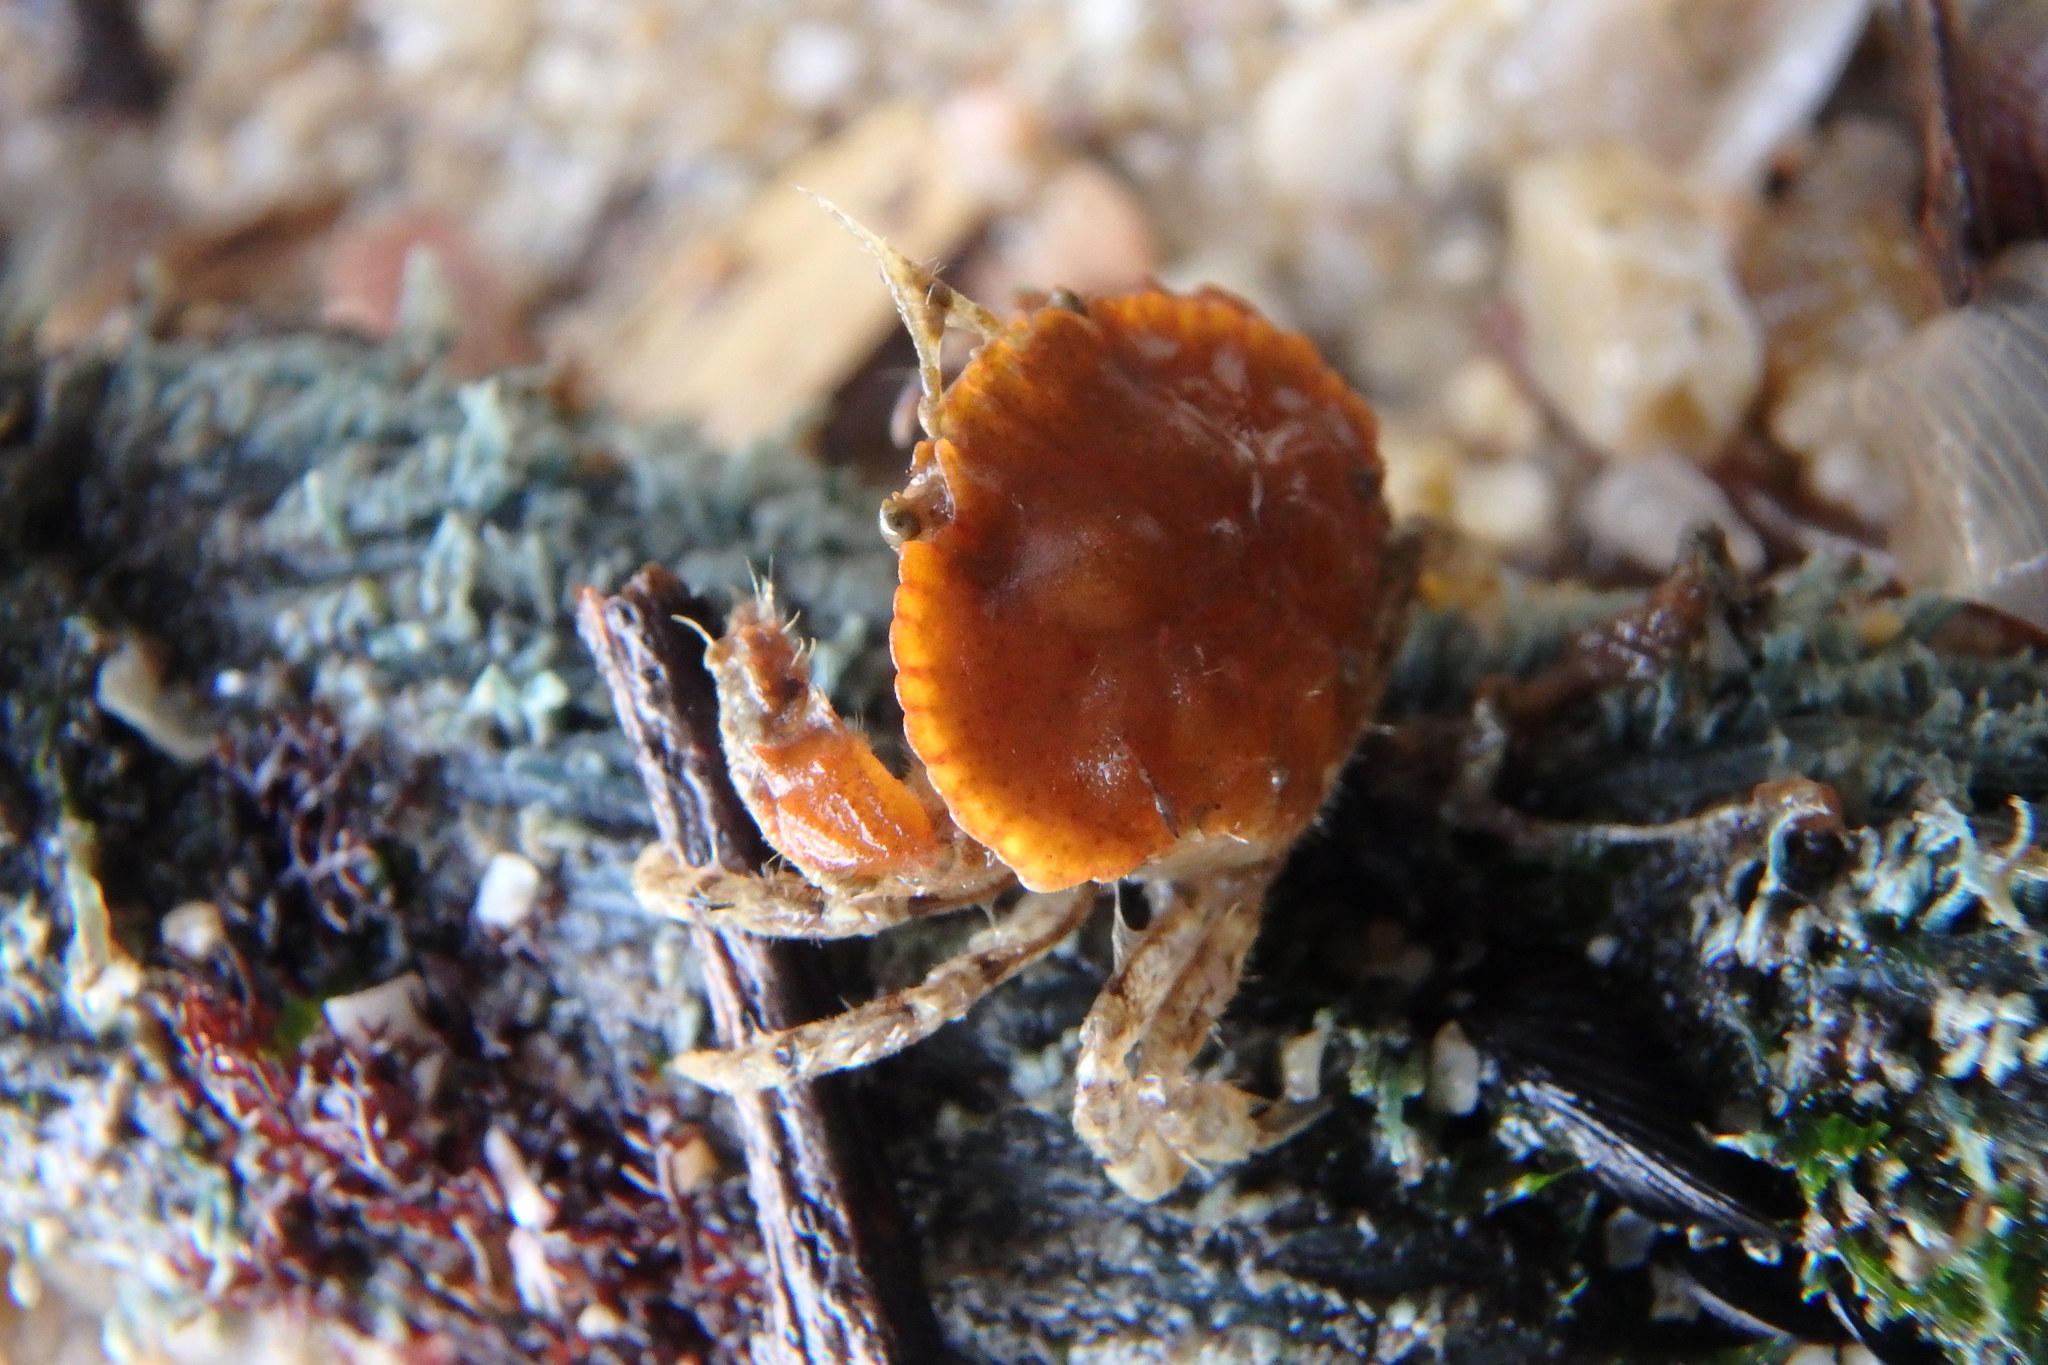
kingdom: Animalia
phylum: Arthropoda
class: Malacostraca
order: Decapoda
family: Cancridae
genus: Glebocarcinus
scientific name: Glebocarcinus amphioetus
